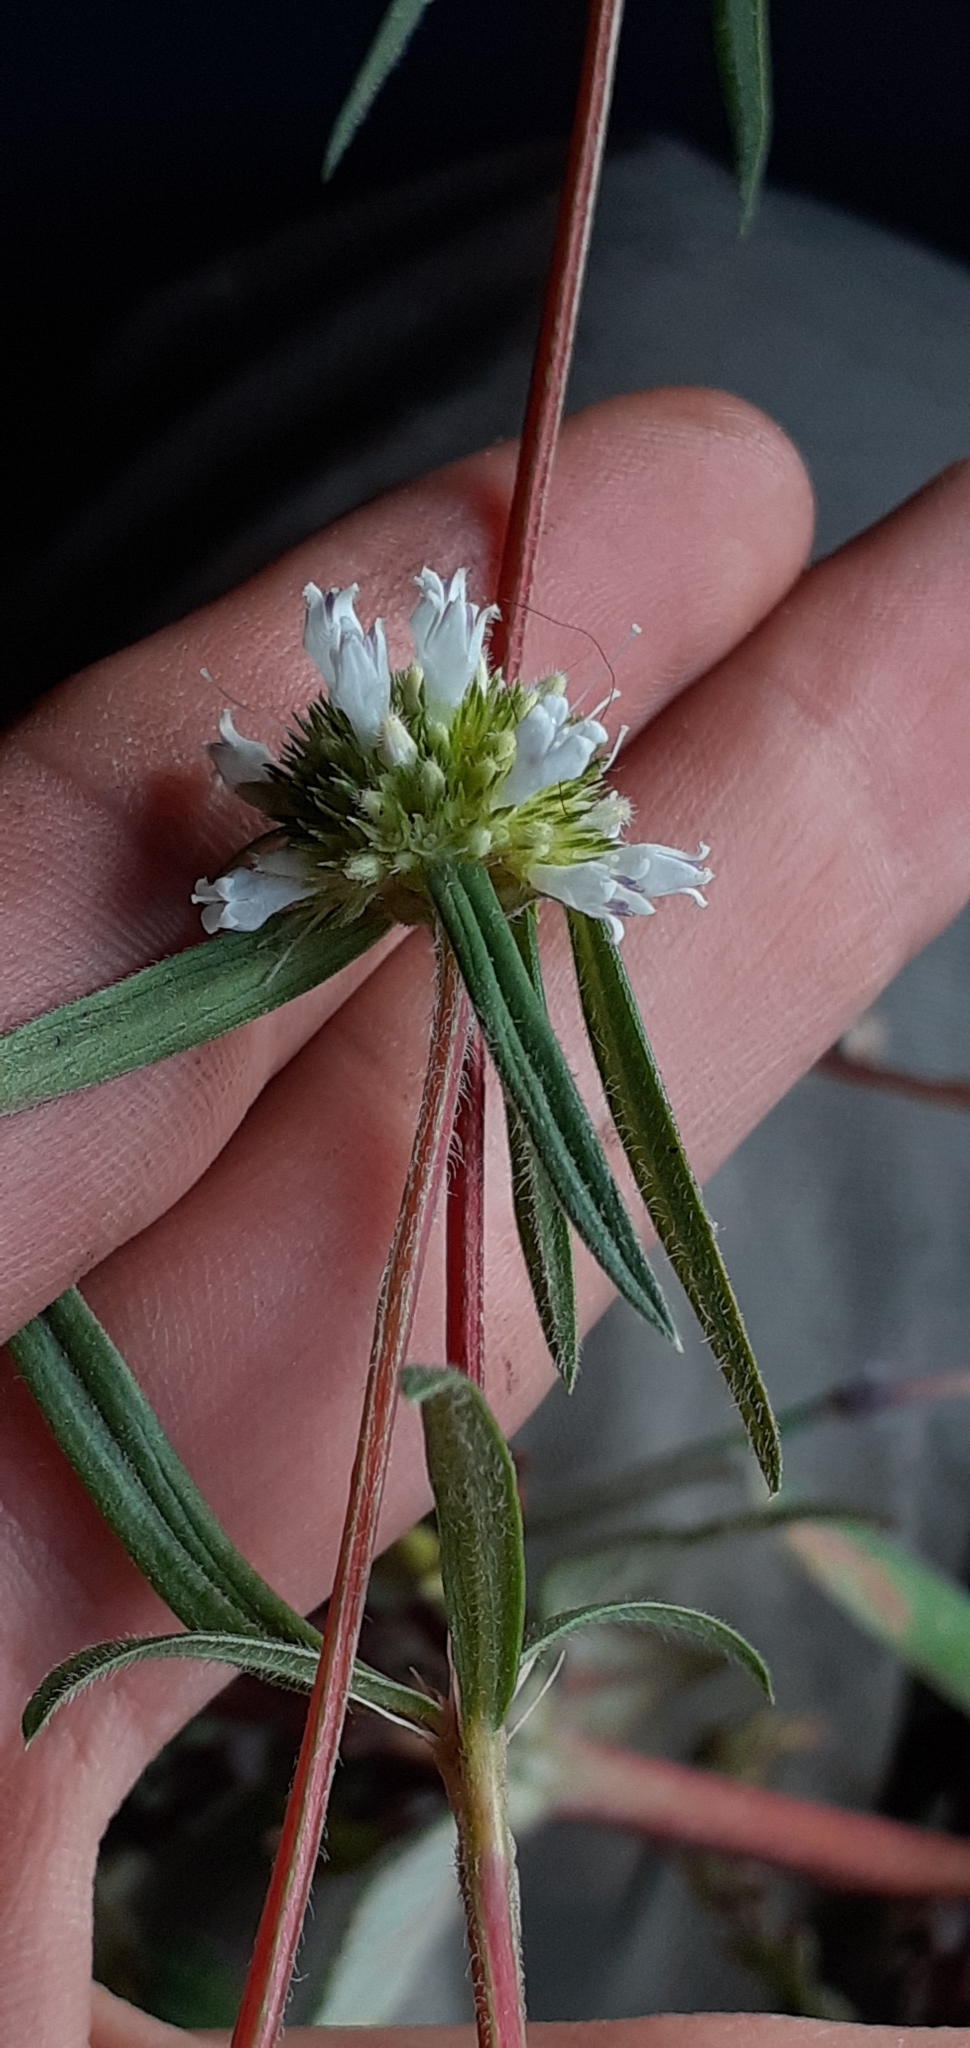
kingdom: Plantae
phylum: Tracheophyta
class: Magnoliopsida
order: Gentianales
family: Rubiaceae
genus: Spermacoce
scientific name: Spermacoce orinocensis
